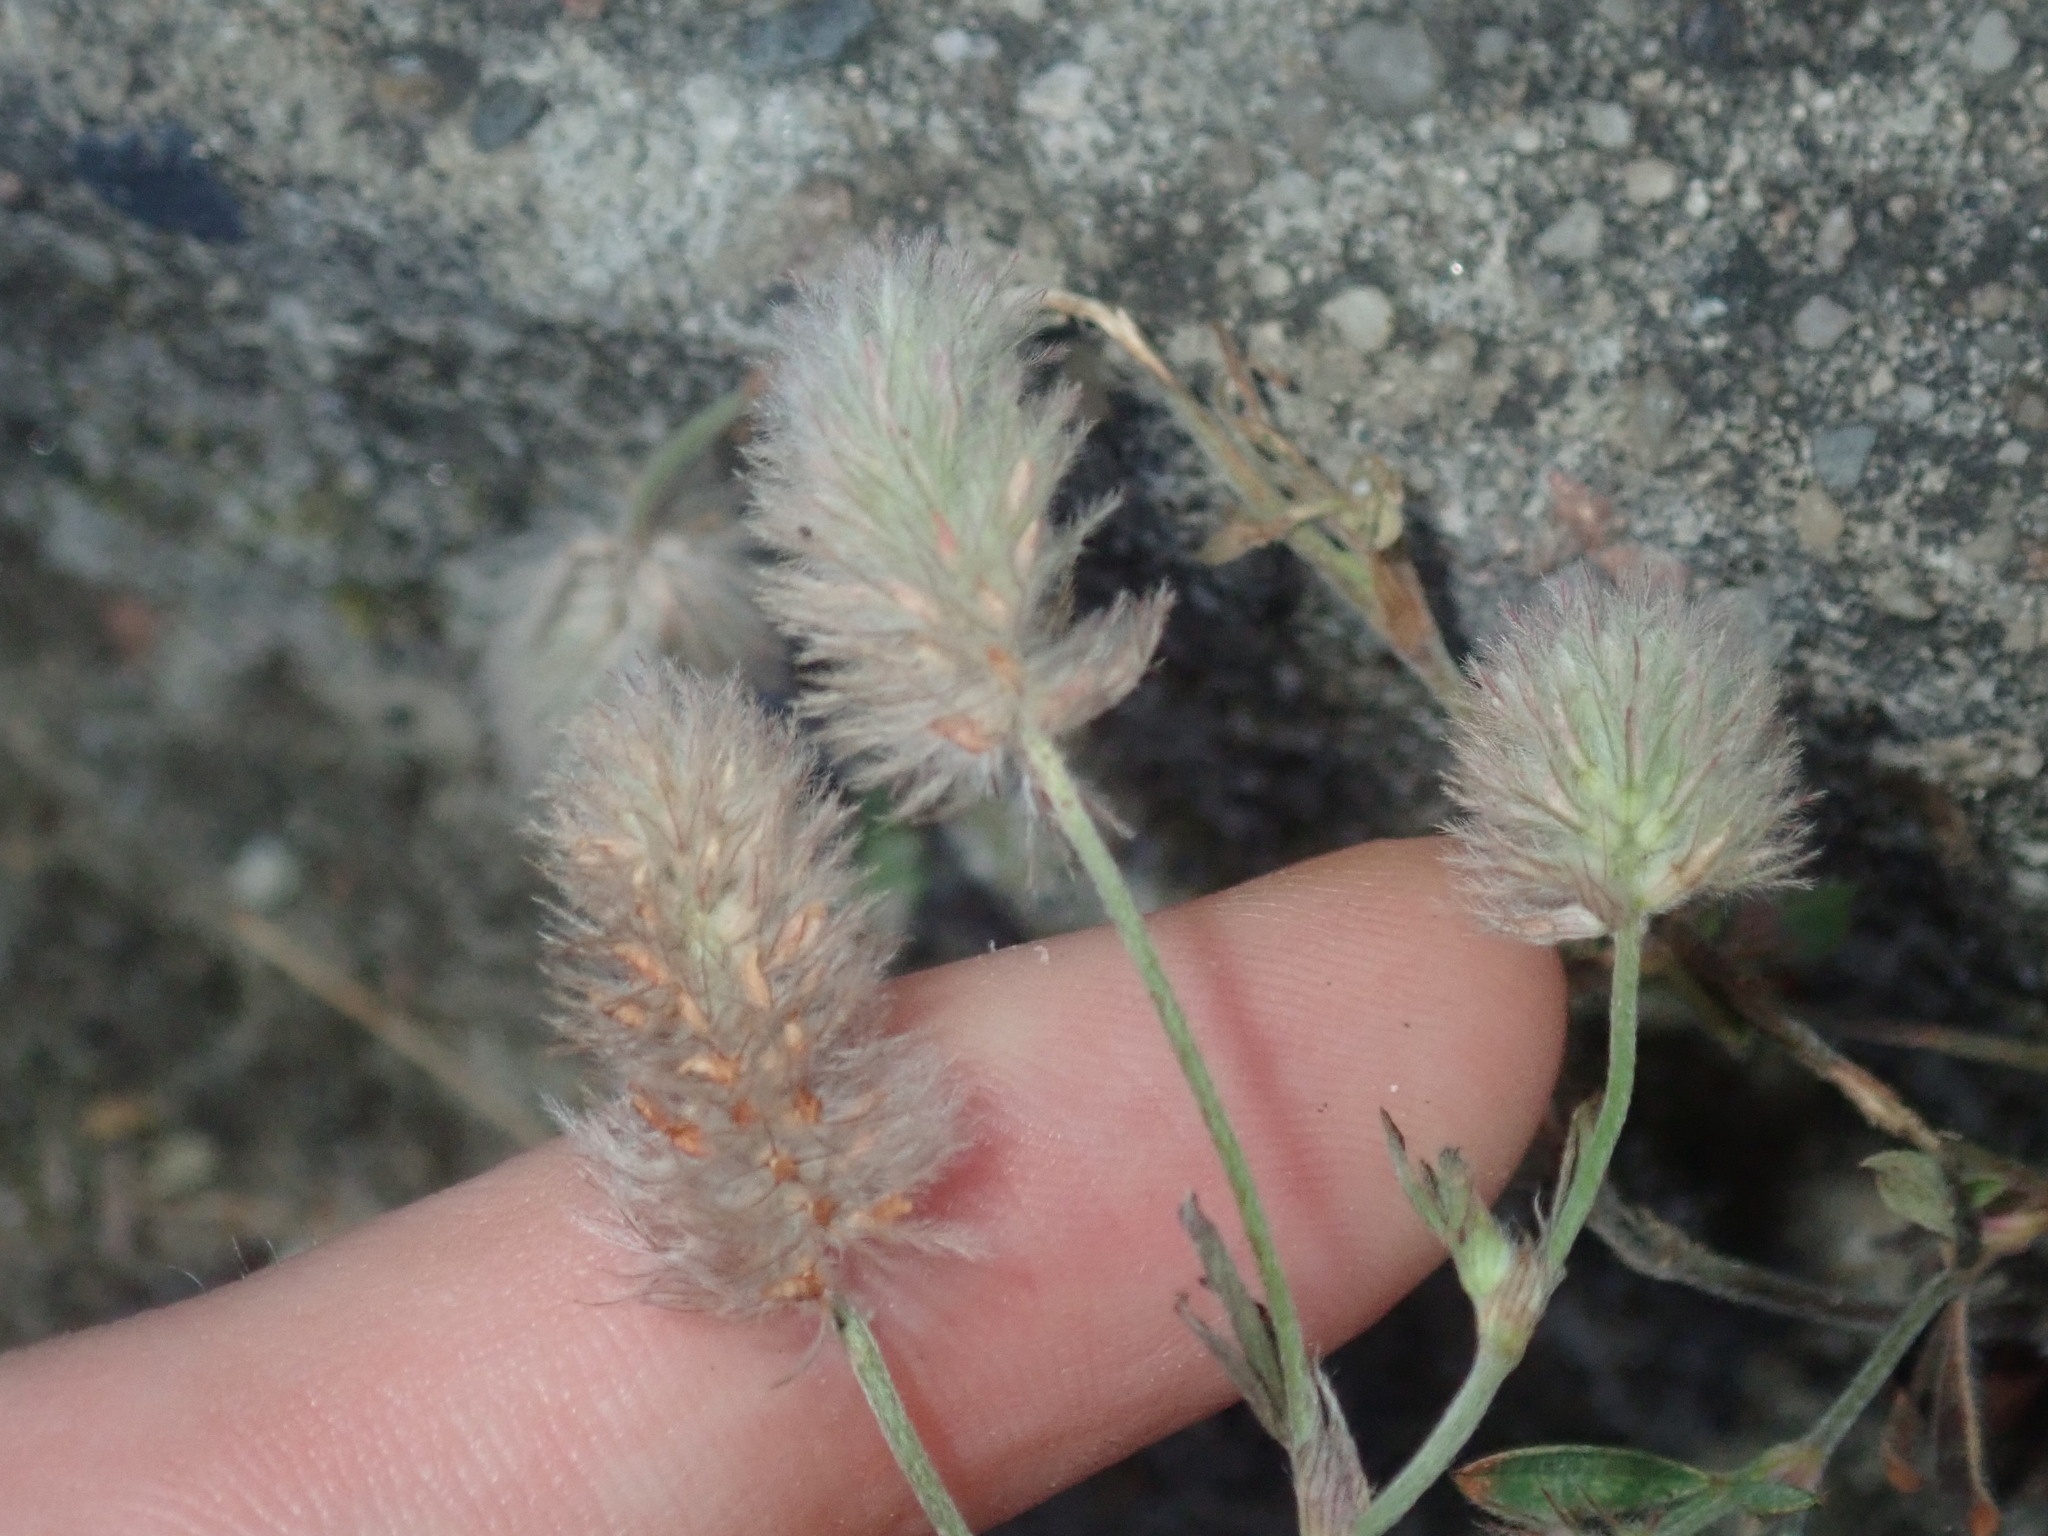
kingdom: Plantae
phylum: Tracheophyta
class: Magnoliopsida
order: Fabales
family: Fabaceae
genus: Trifolium
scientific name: Trifolium arvense
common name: Hare's-foot clover
